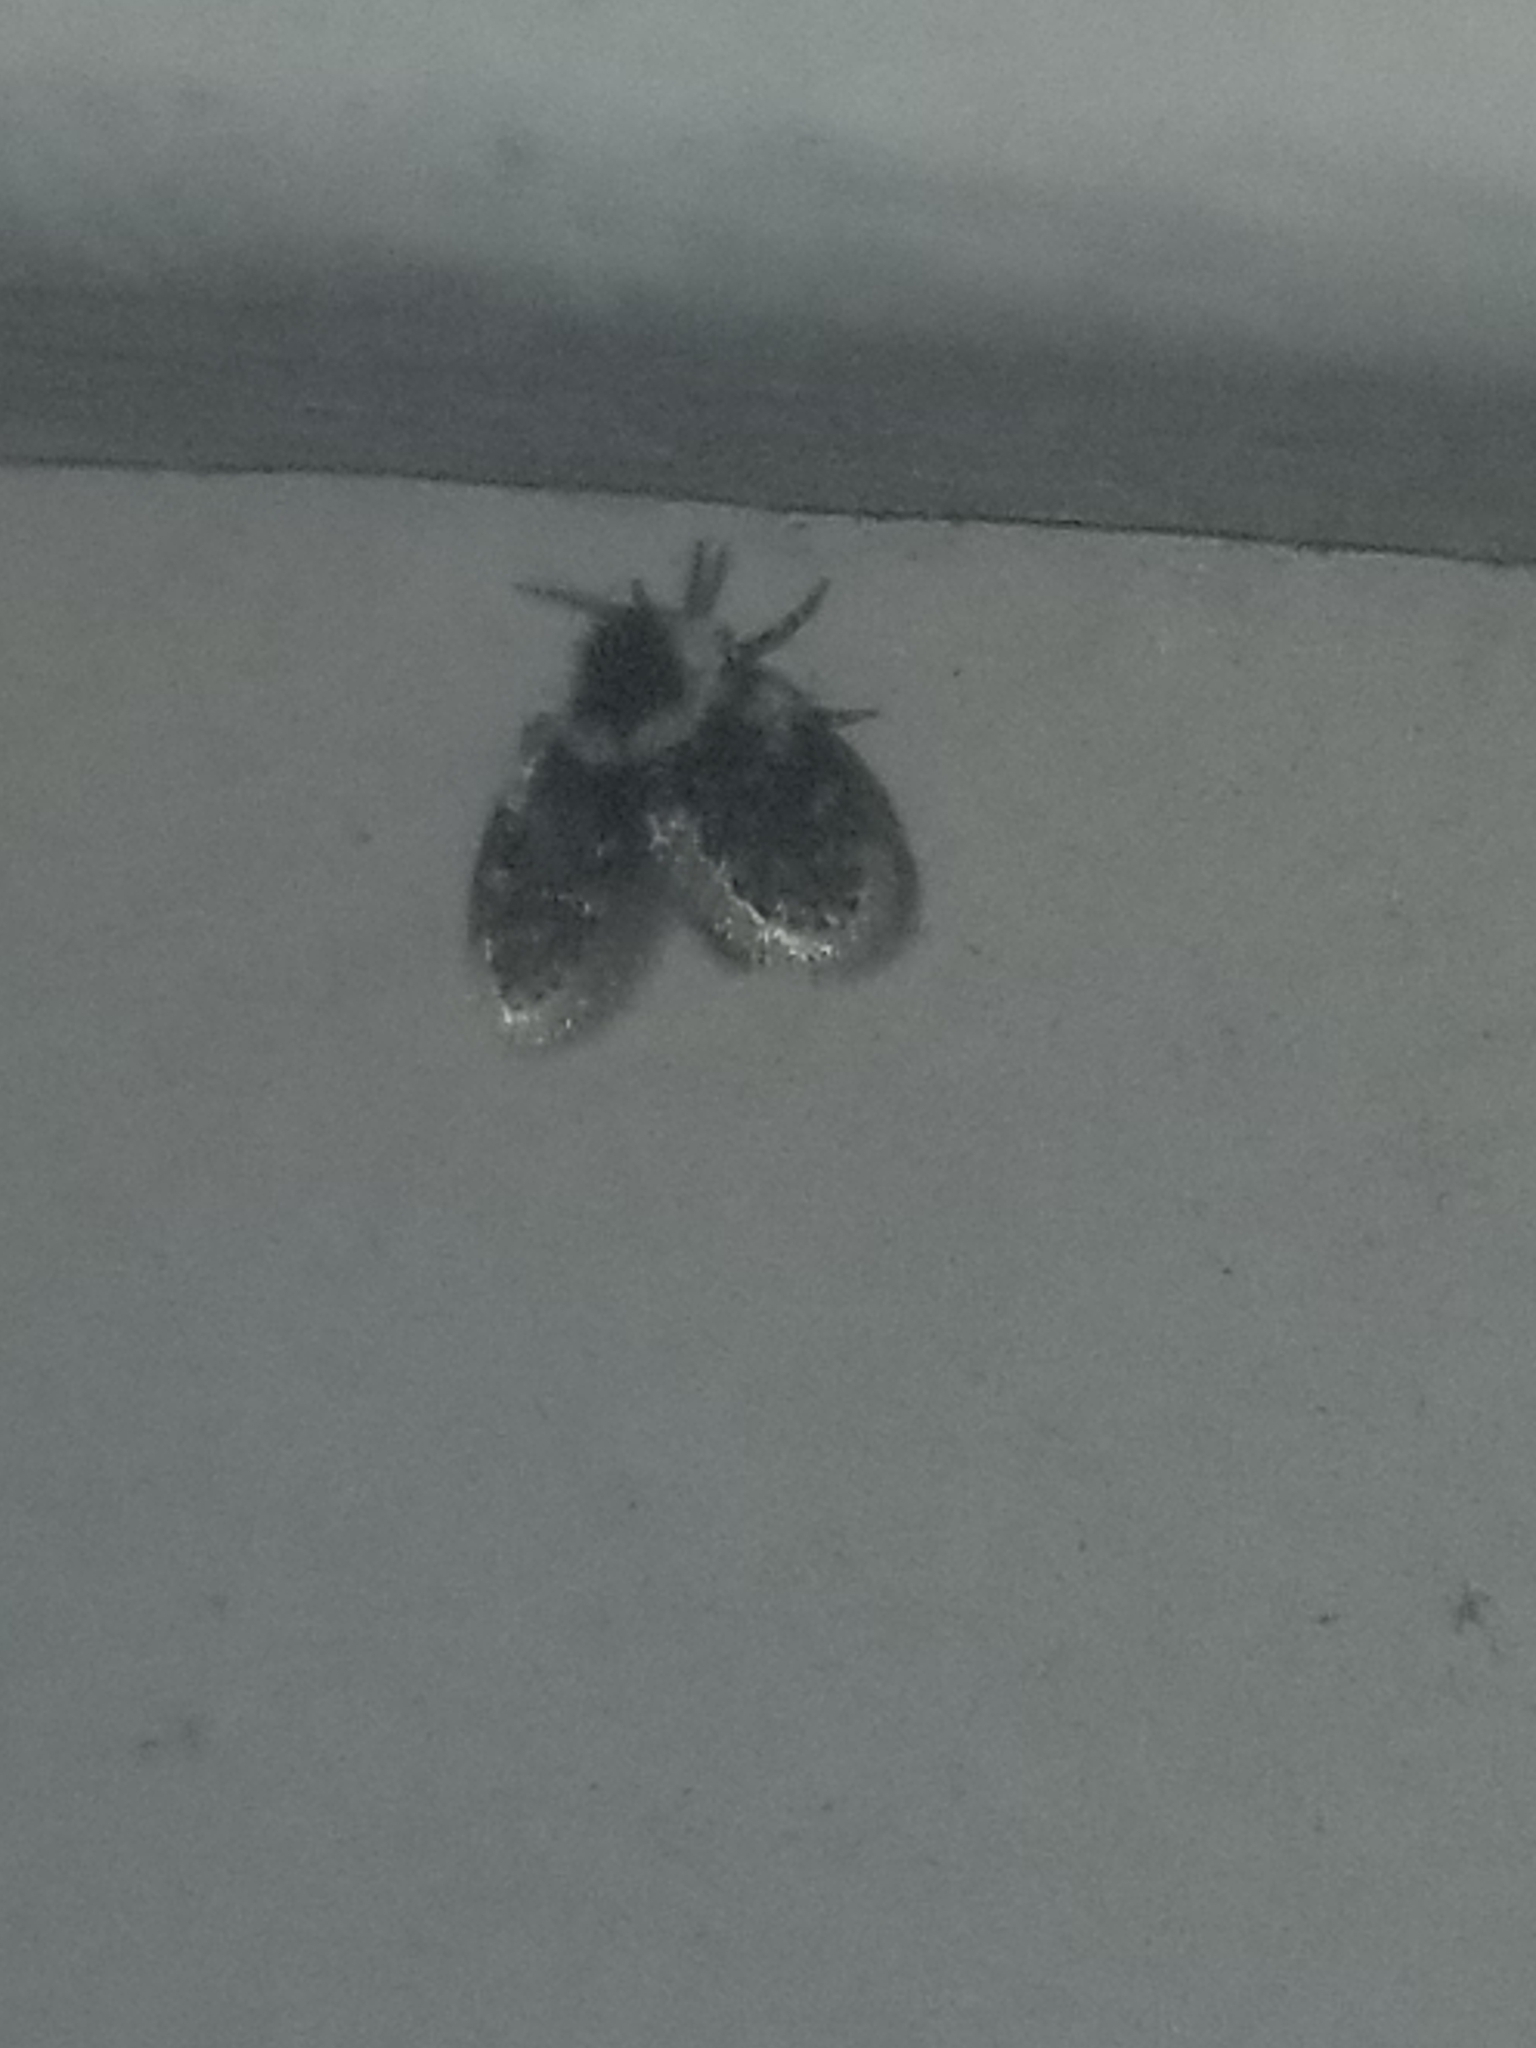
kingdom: Animalia
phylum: Arthropoda
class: Insecta
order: Diptera
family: Psychodidae
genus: Lepiseodina
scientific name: Lepiseodina
